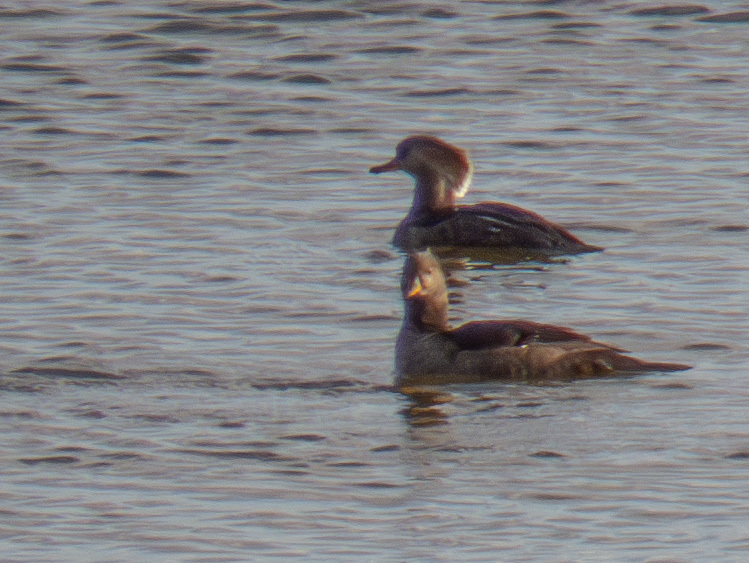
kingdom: Animalia
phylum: Chordata
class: Aves
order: Anseriformes
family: Anatidae
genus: Lophodytes
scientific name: Lophodytes cucullatus
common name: Hooded merganser
